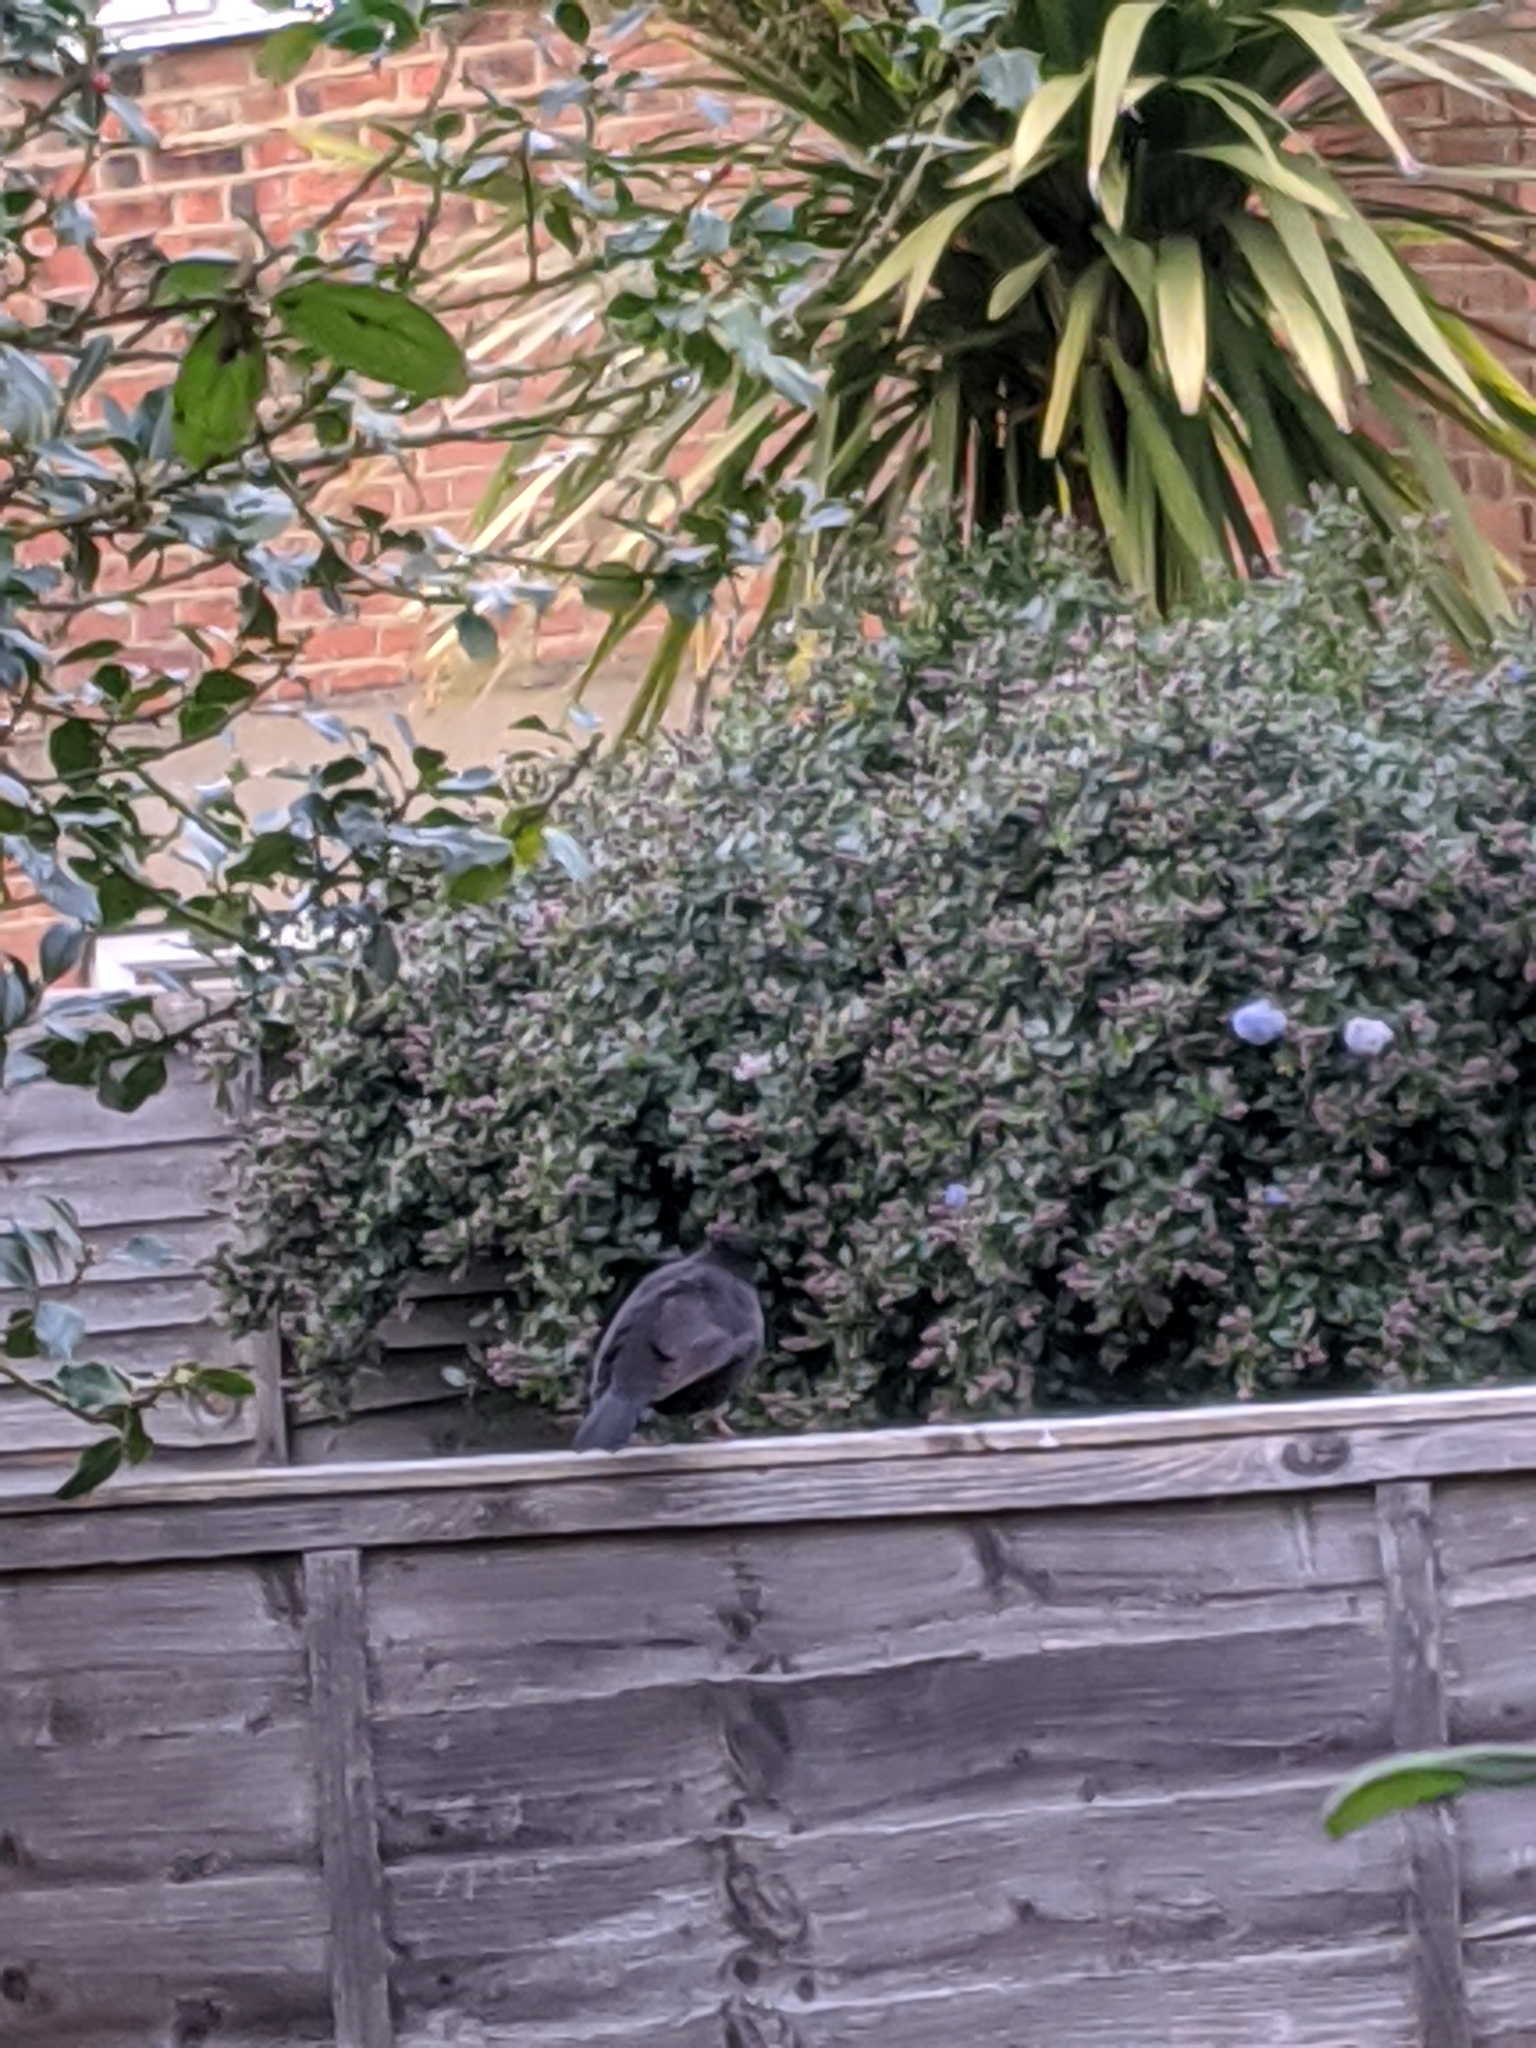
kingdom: Animalia
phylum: Chordata
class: Aves
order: Passeriformes
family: Turdidae
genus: Turdus
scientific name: Turdus merula
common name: Common blackbird
